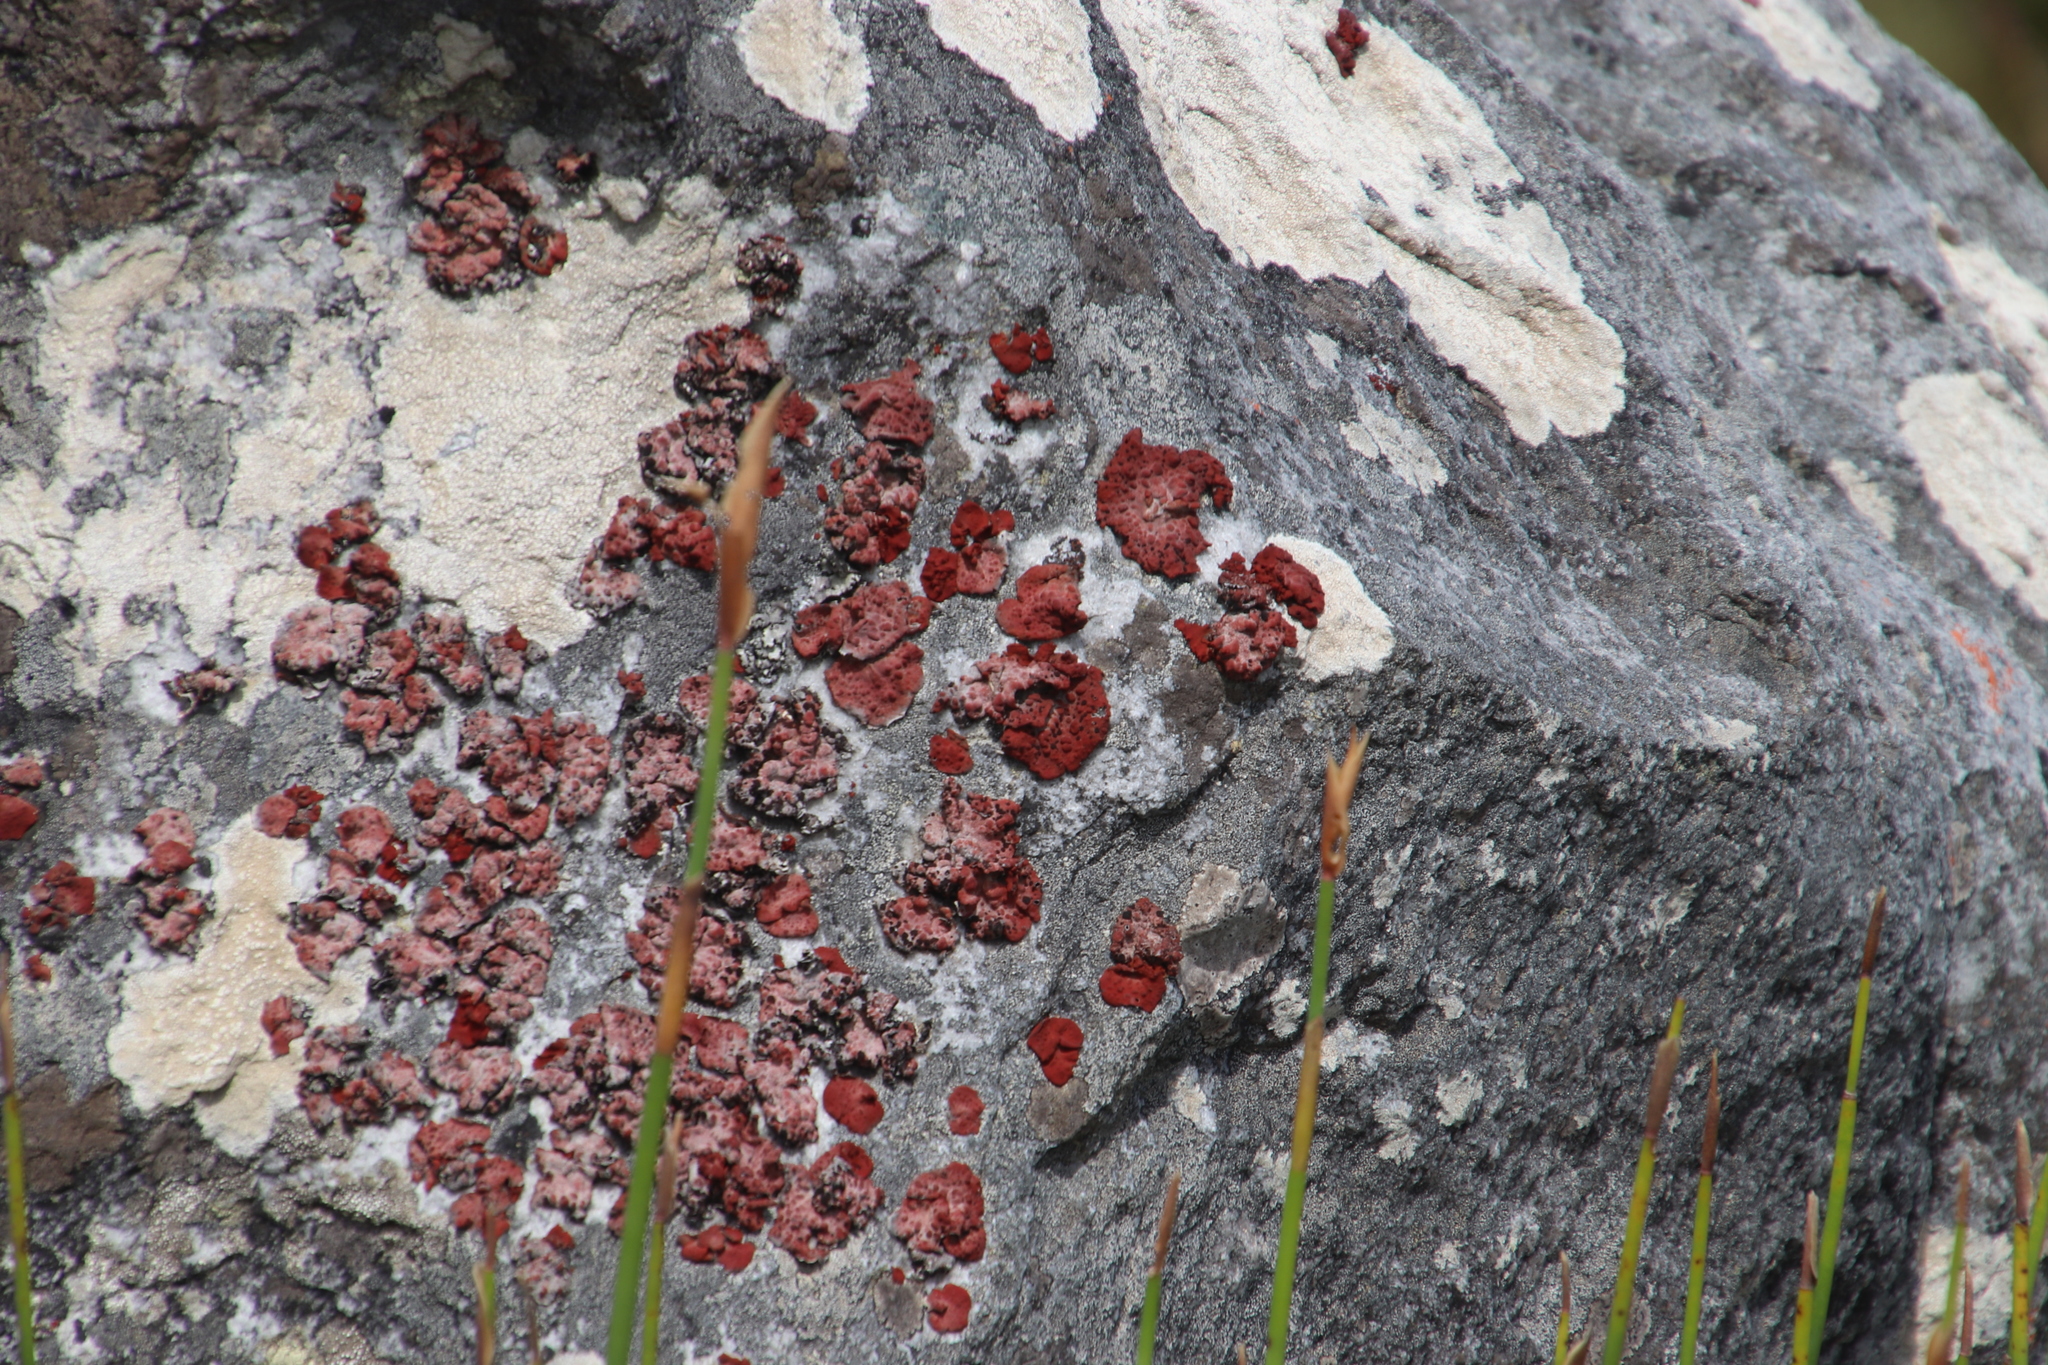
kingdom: Fungi
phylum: Ascomycota
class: Lecanoromycetes
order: Umbilicariales
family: Umbilicariaceae
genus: Lasallia
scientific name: Lasallia rubiginosa
